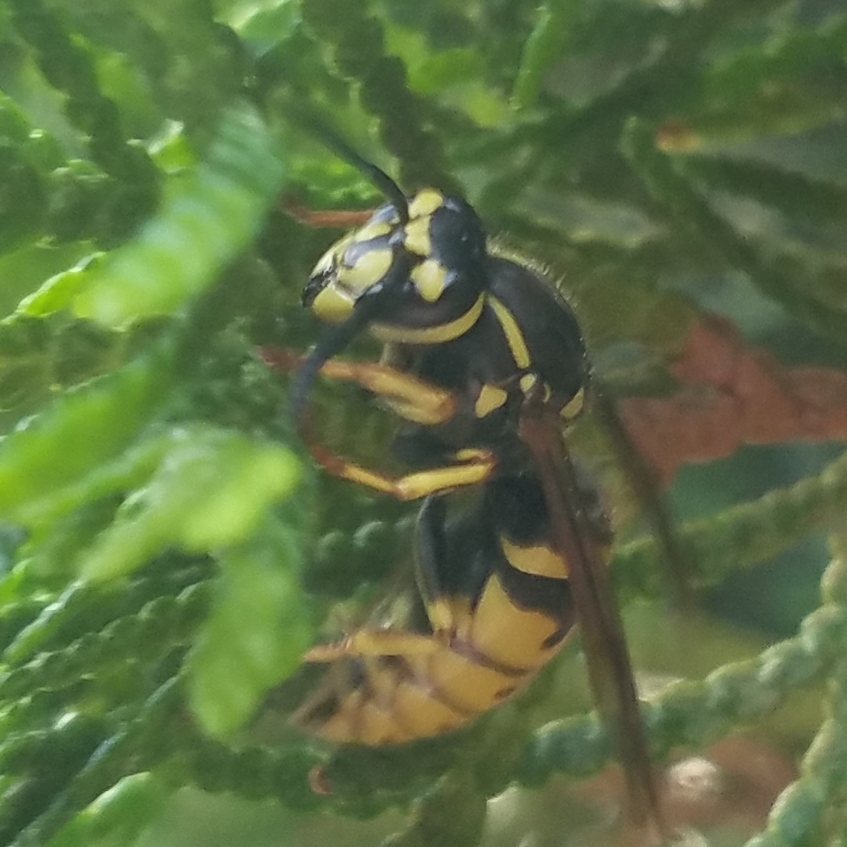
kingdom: Animalia
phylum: Arthropoda
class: Insecta
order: Hymenoptera
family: Vespidae
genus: Vespula
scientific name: Vespula flavopilosa
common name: Downy yellowjacket
